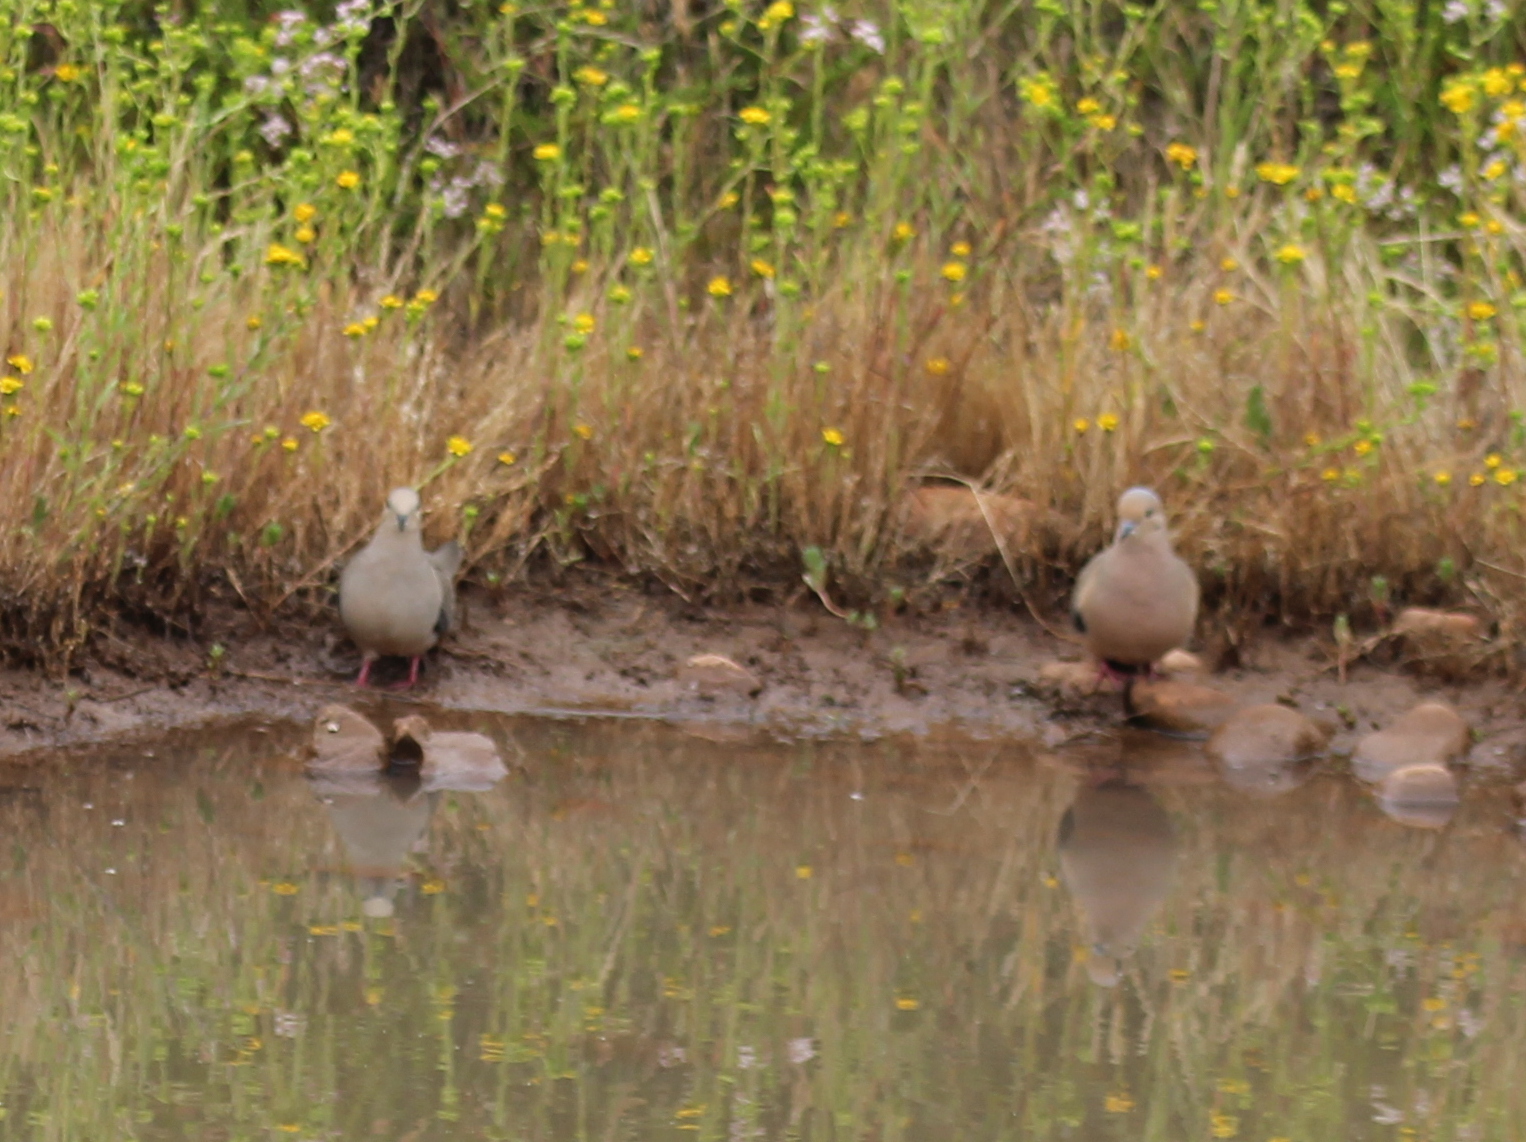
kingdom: Animalia
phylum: Chordata
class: Aves
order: Columbiformes
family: Columbidae
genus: Zenaida
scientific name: Zenaida macroura
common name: Mourning dove
